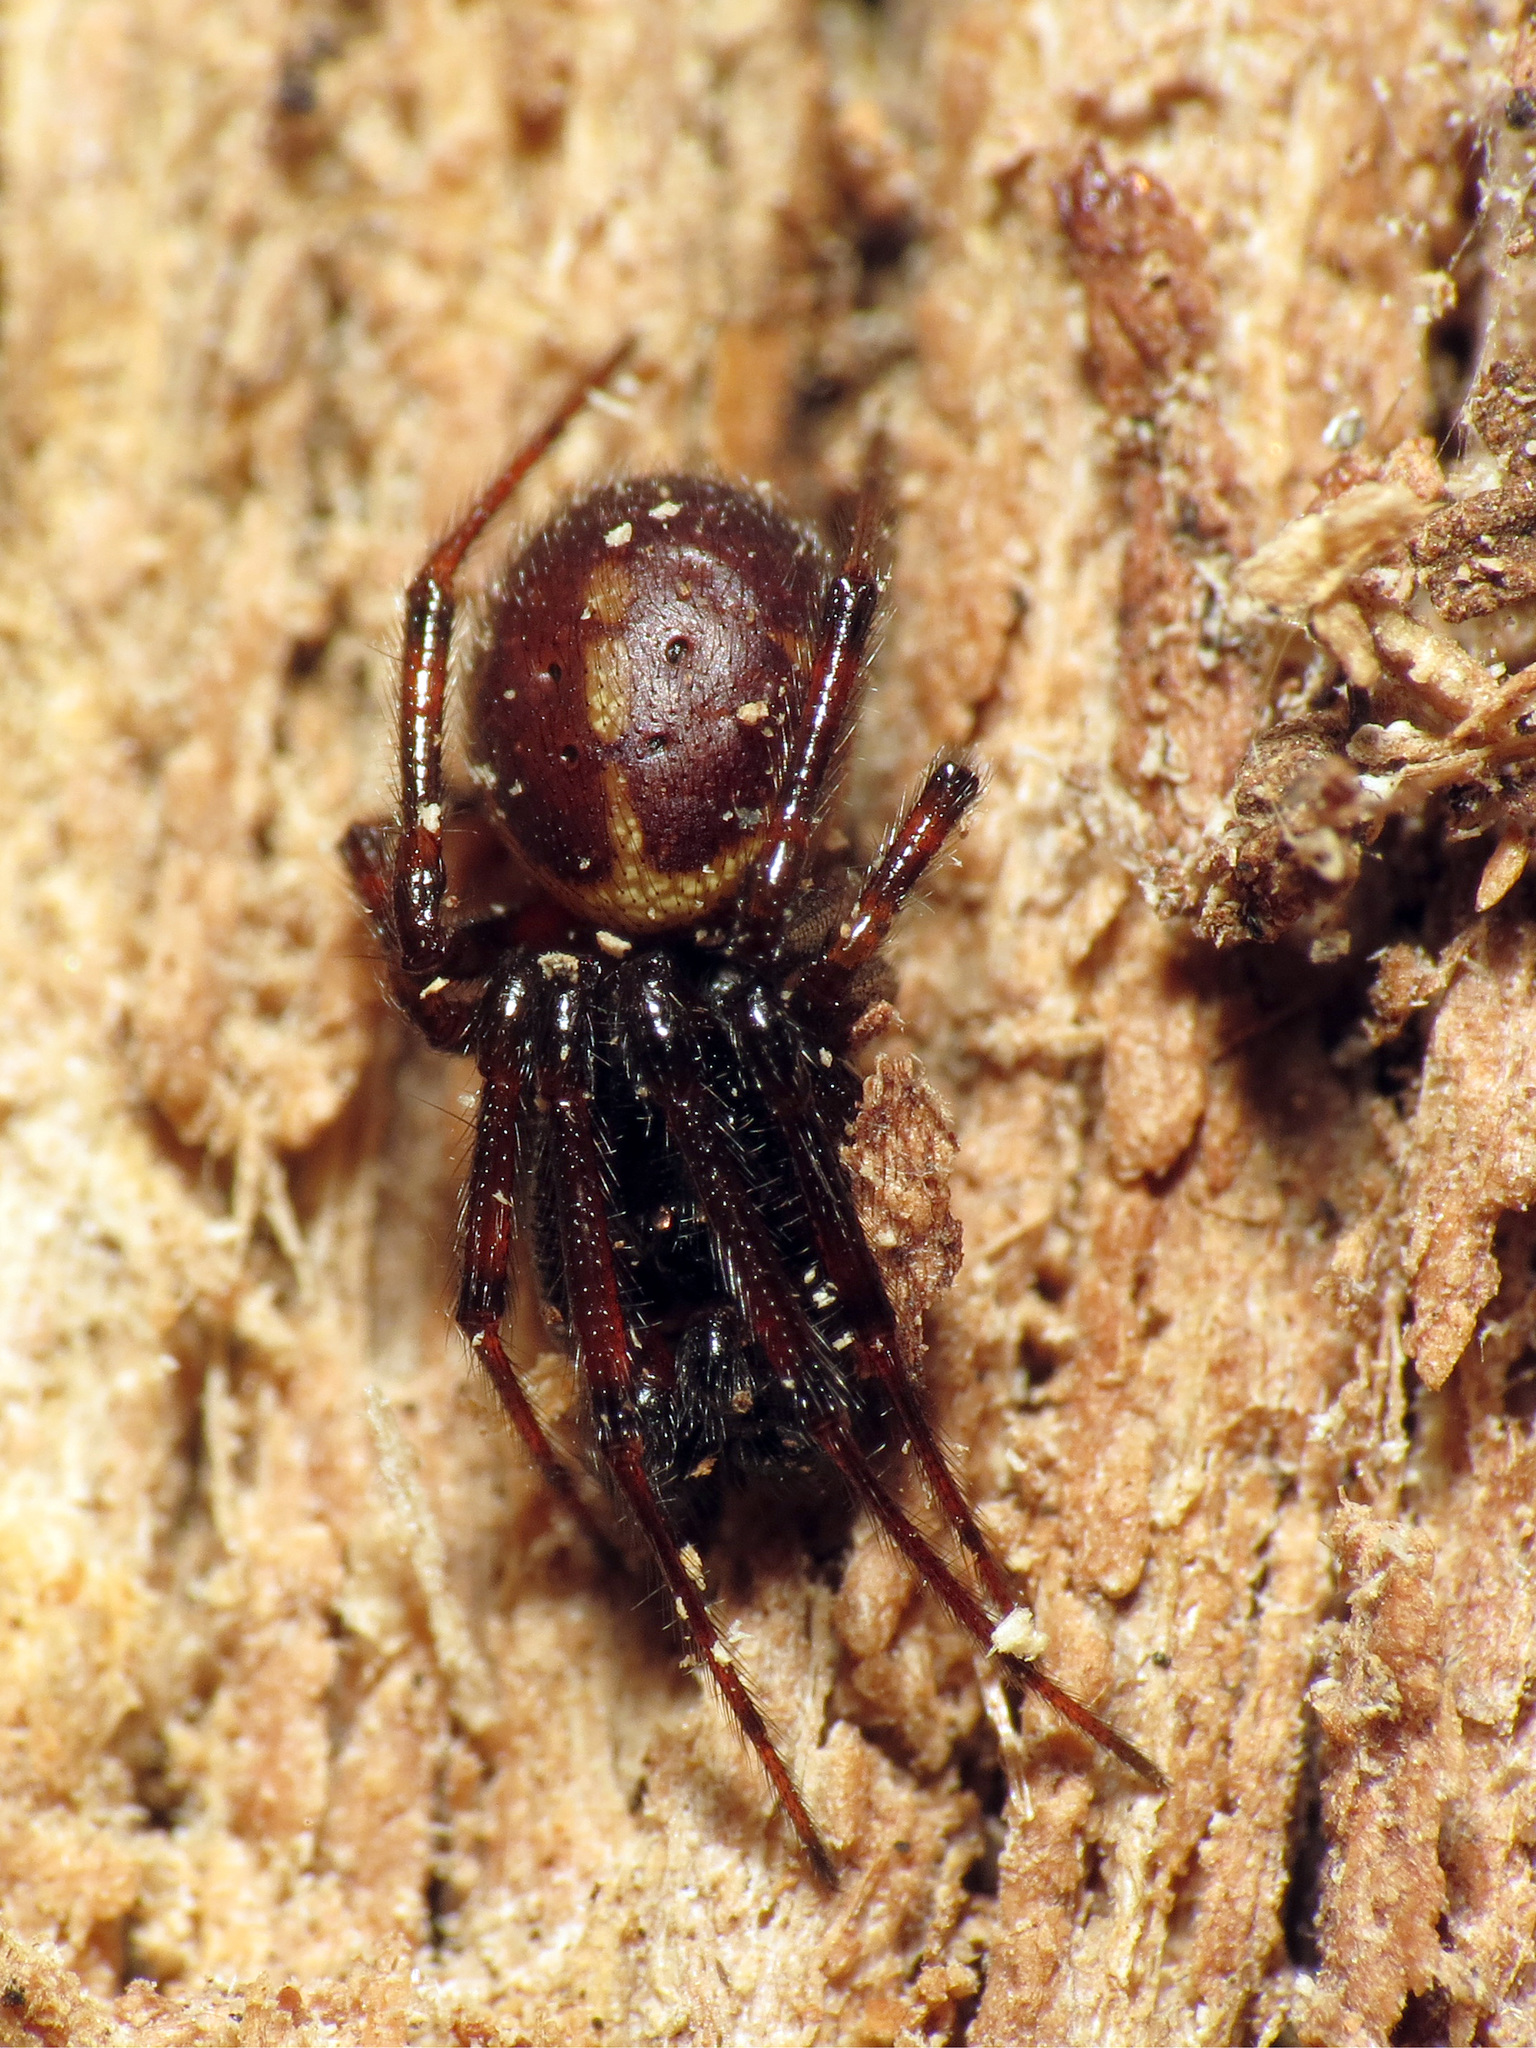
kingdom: Animalia
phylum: Arthropoda
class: Arachnida
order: Araneae
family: Theridiidae
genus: Steatoda
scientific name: Steatoda borealis
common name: Boreal combfoot
